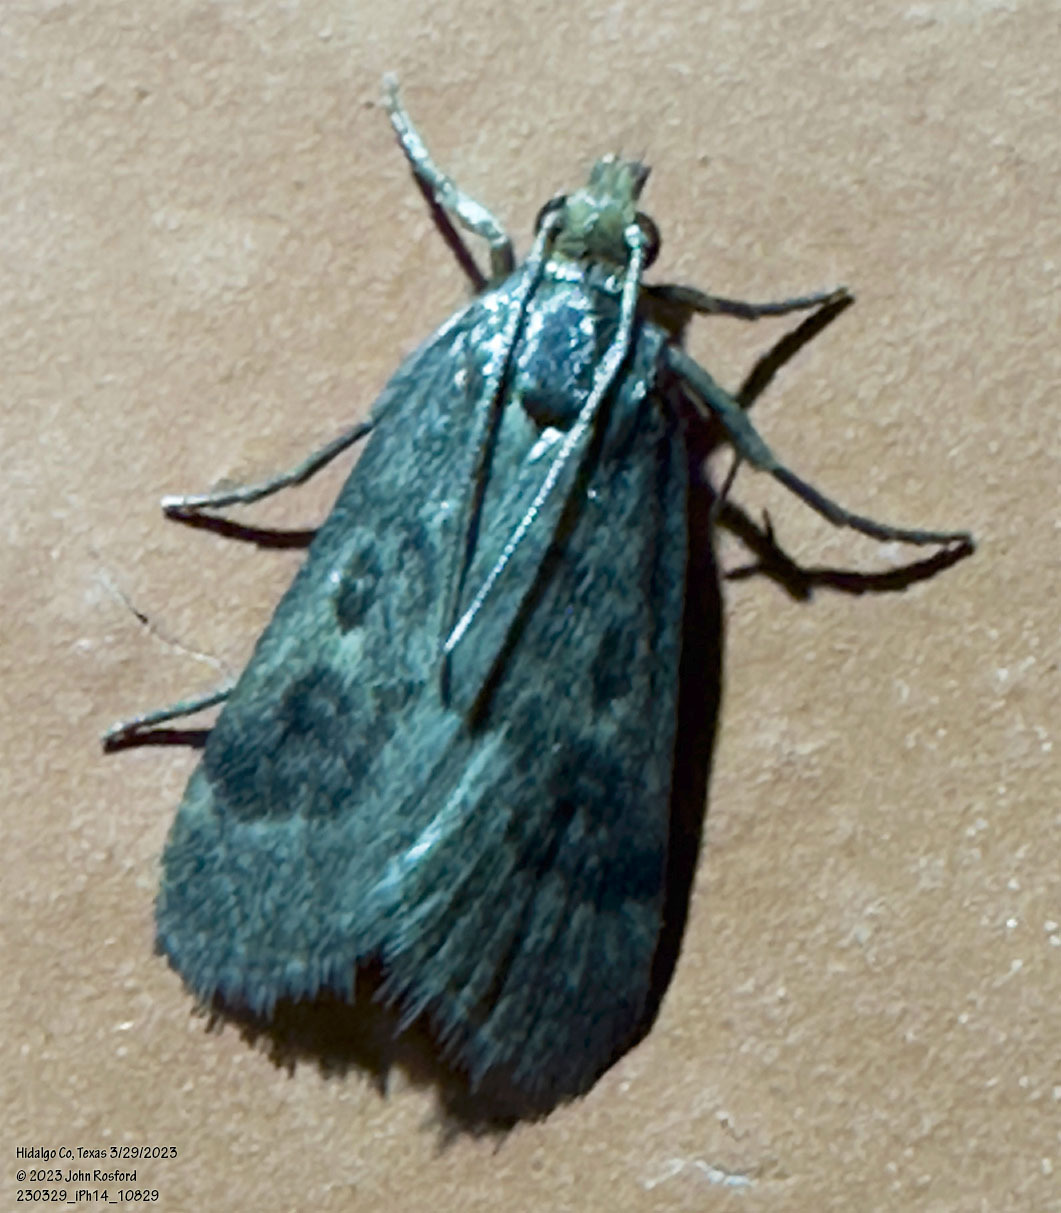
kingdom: Animalia
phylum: Arthropoda
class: Insecta
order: Lepidoptera
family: Crambidae
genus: Loxostegopsis
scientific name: Loxostegopsis polle
